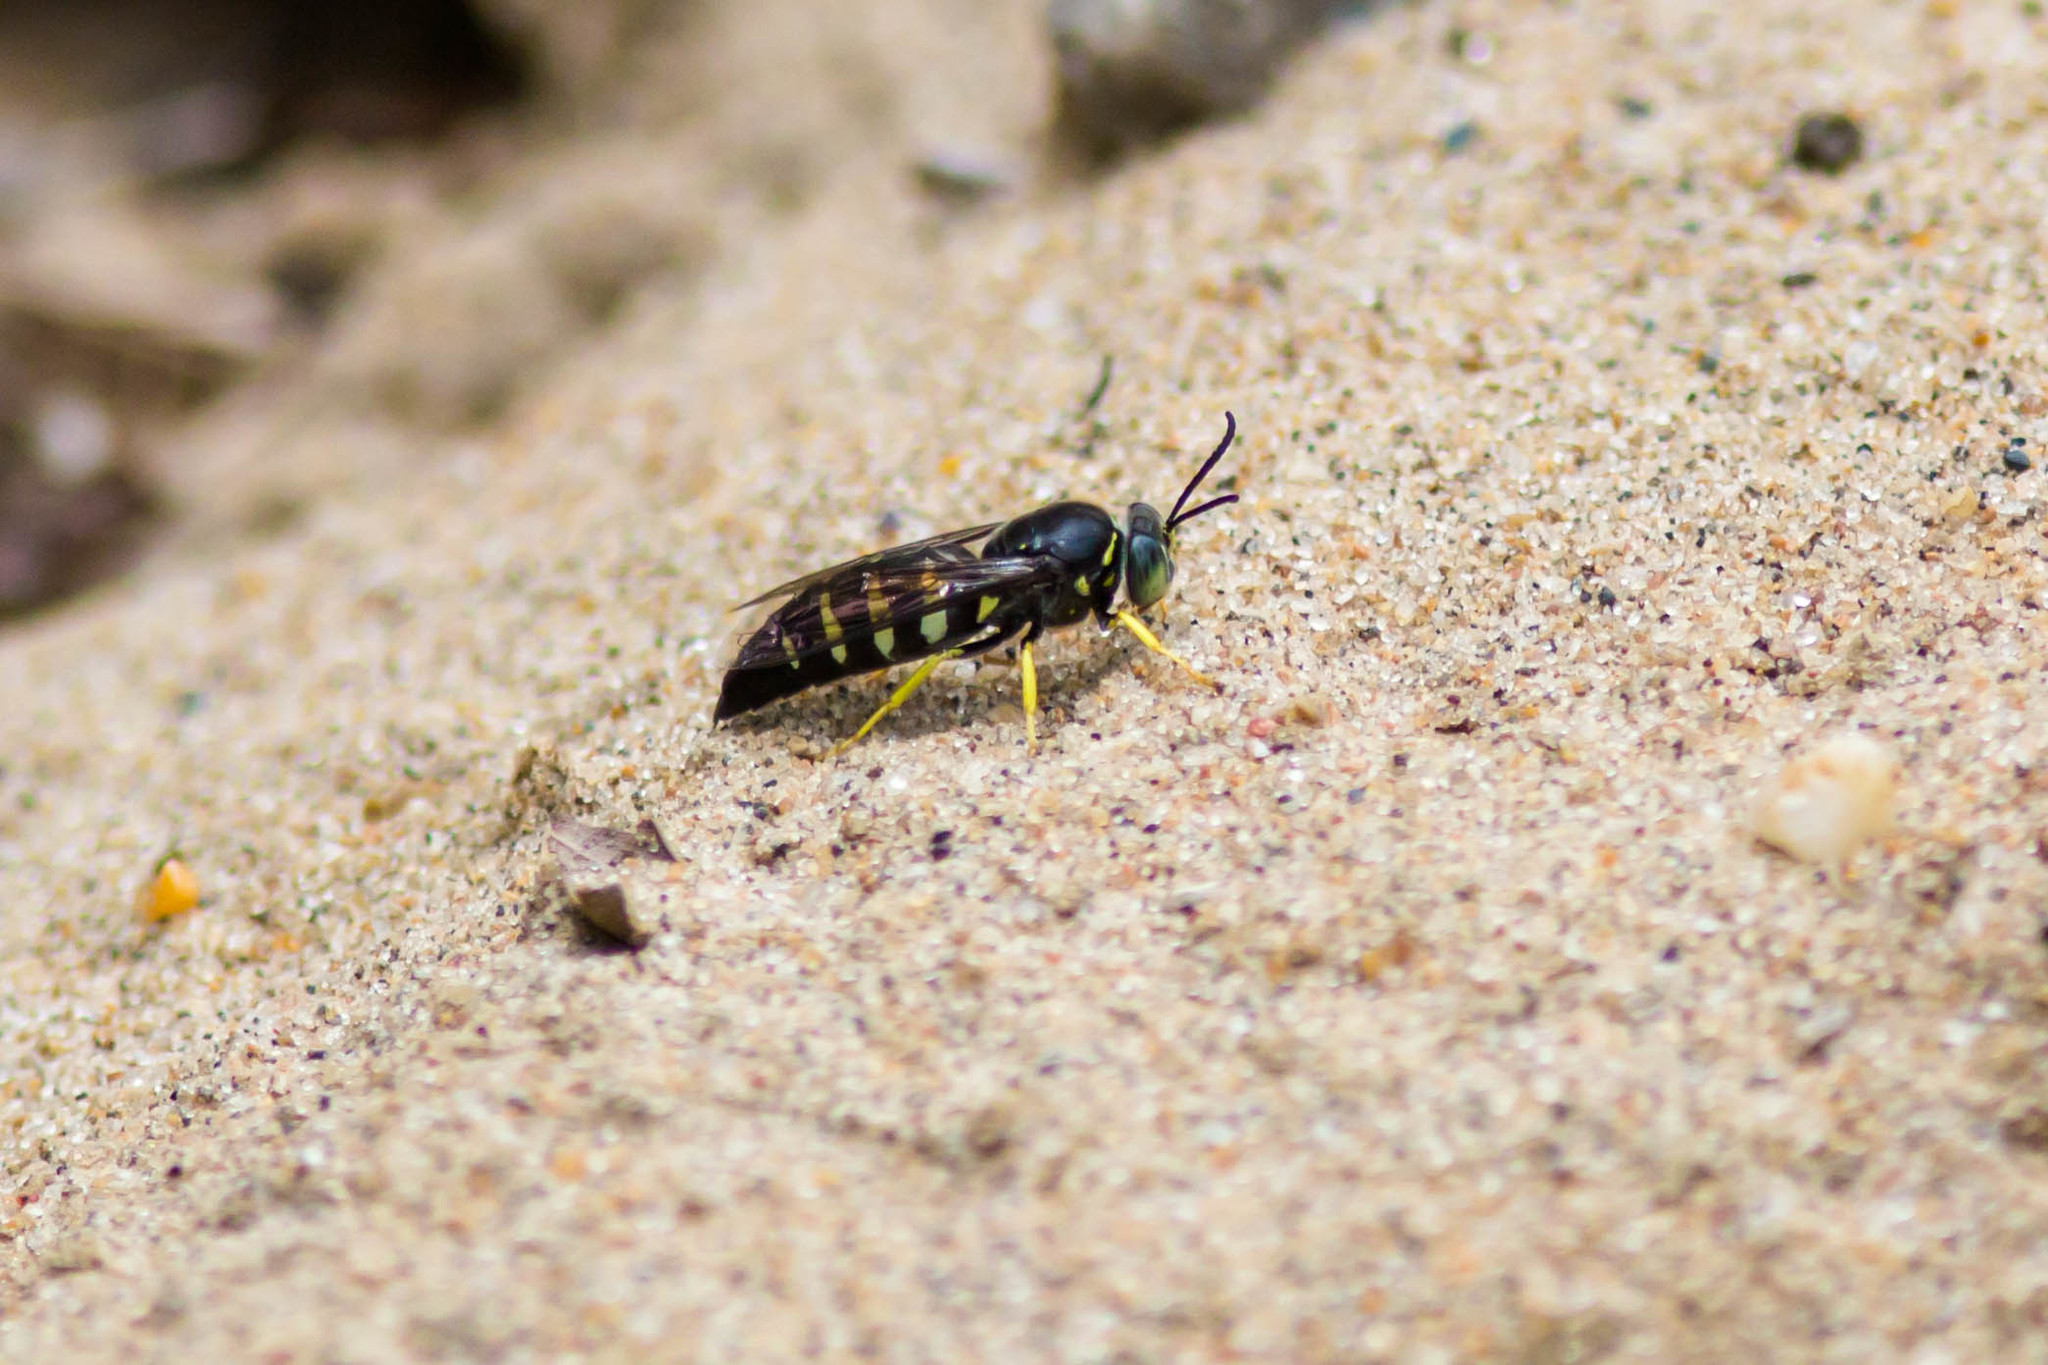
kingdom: Animalia
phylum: Arthropoda
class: Insecta
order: Hymenoptera
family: Crabronidae
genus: Bicyrtes
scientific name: Bicyrtes quadrifasciatus
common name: Four-banded stink bug hunter wasp
